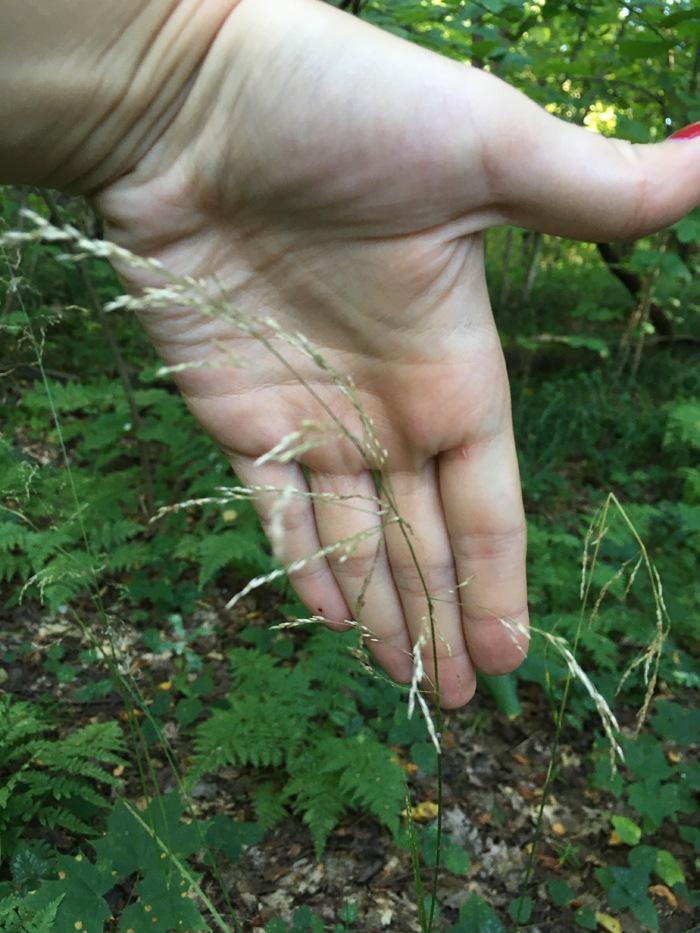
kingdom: Plantae
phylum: Tracheophyta
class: Liliopsida
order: Poales
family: Poaceae
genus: Deschampsia
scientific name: Deschampsia cespitosa
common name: Tufted hair-grass
